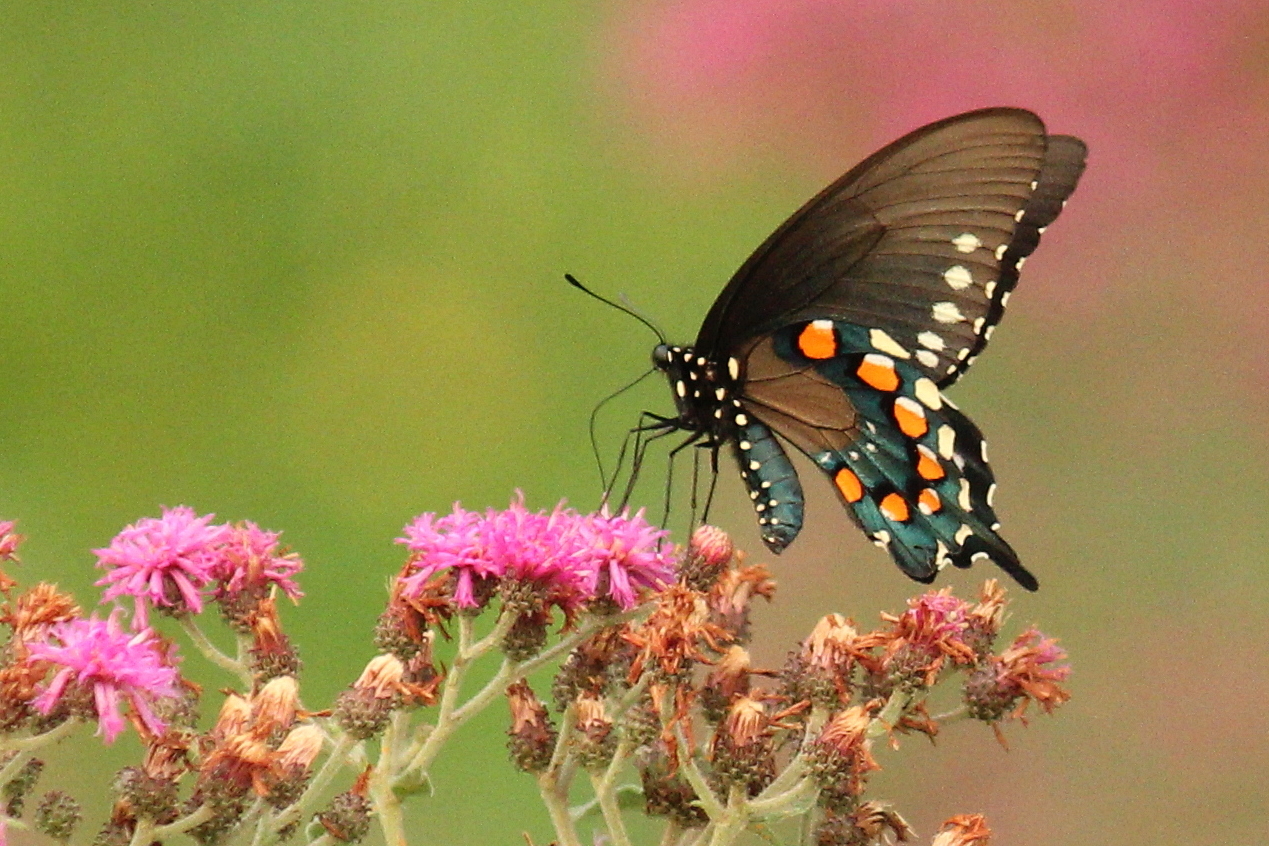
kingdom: Animalia
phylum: Arthropoda
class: Insecta
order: Lepidoptera
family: Papilionidae
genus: Battus
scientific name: Battus philenor
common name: Pipevine swallowtail
